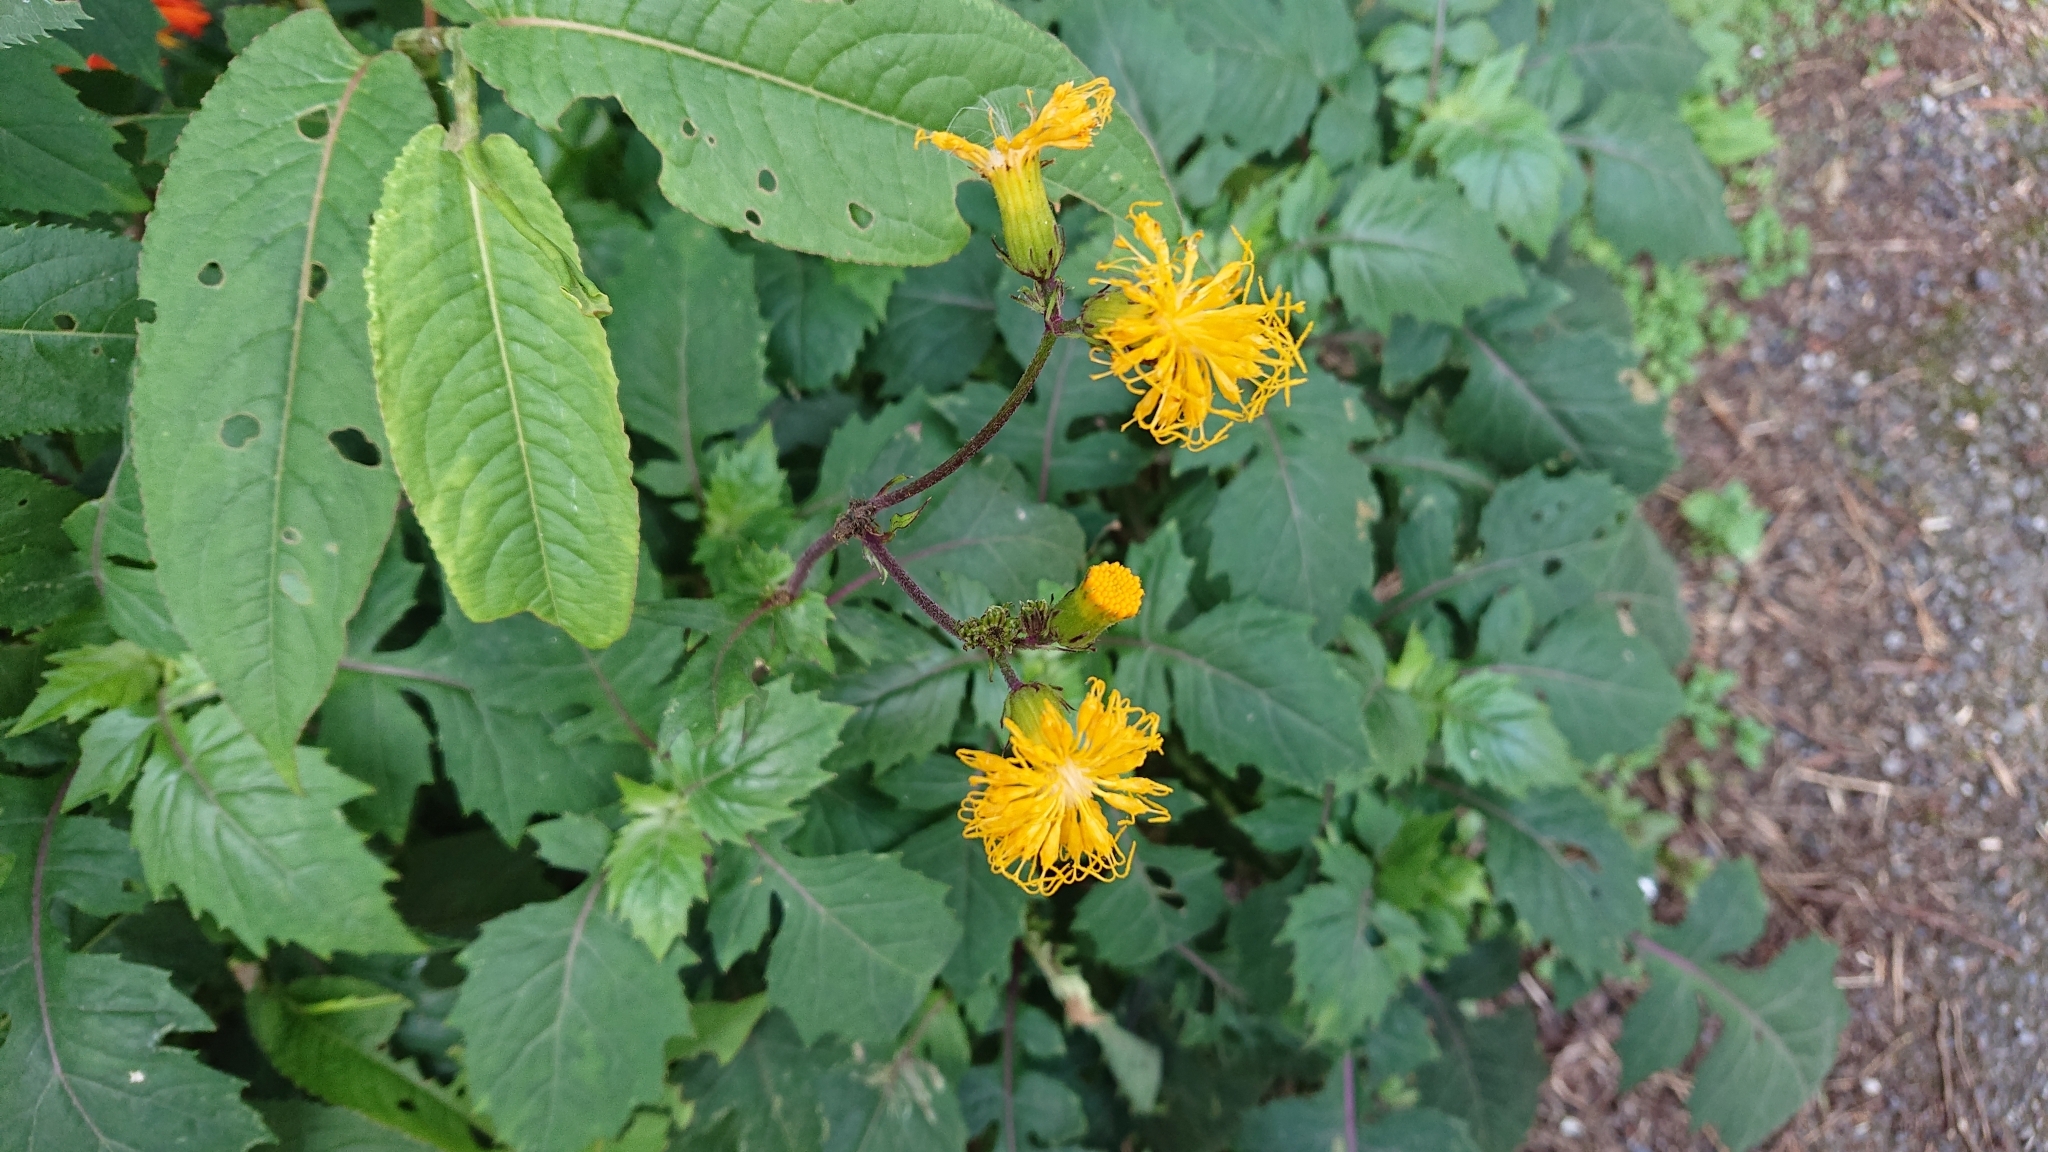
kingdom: Plantae
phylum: Tracheophyta
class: Magnoliopsida
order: Asterales
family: Asteraceae
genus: Gynura
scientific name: Gynura japonica
